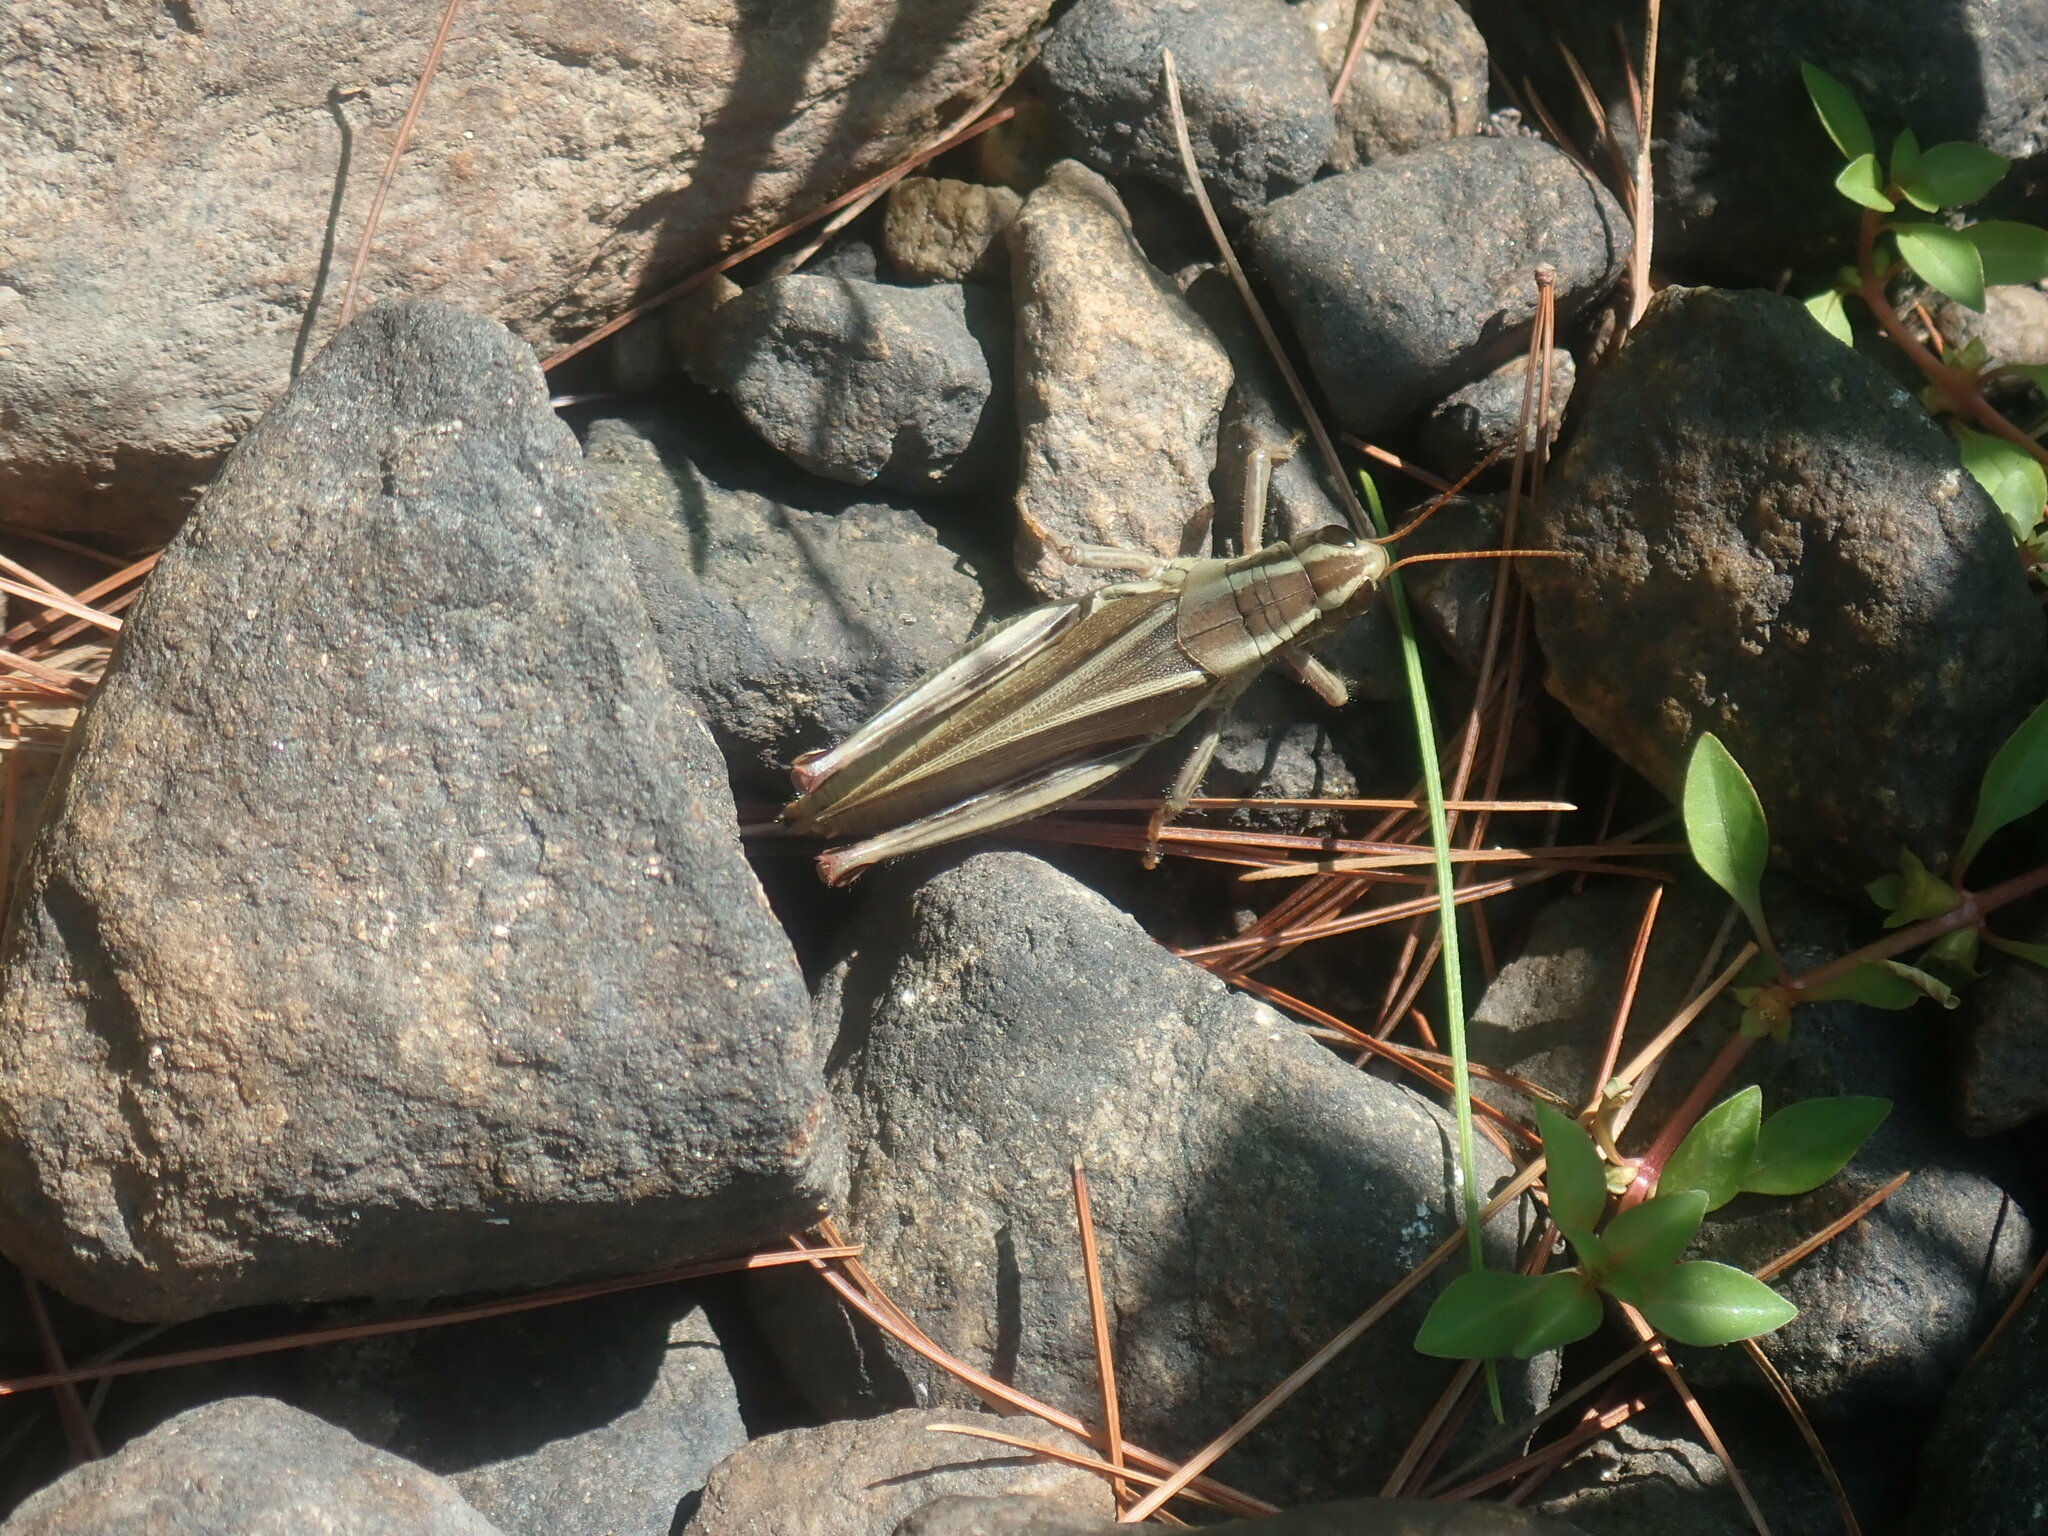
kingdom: Animalia
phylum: Arthropoda
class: Insecta
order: Orthoptera
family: Acrididae
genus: Melanoplus
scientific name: Melanoplus bivittatus
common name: Two-striped grasshopper
